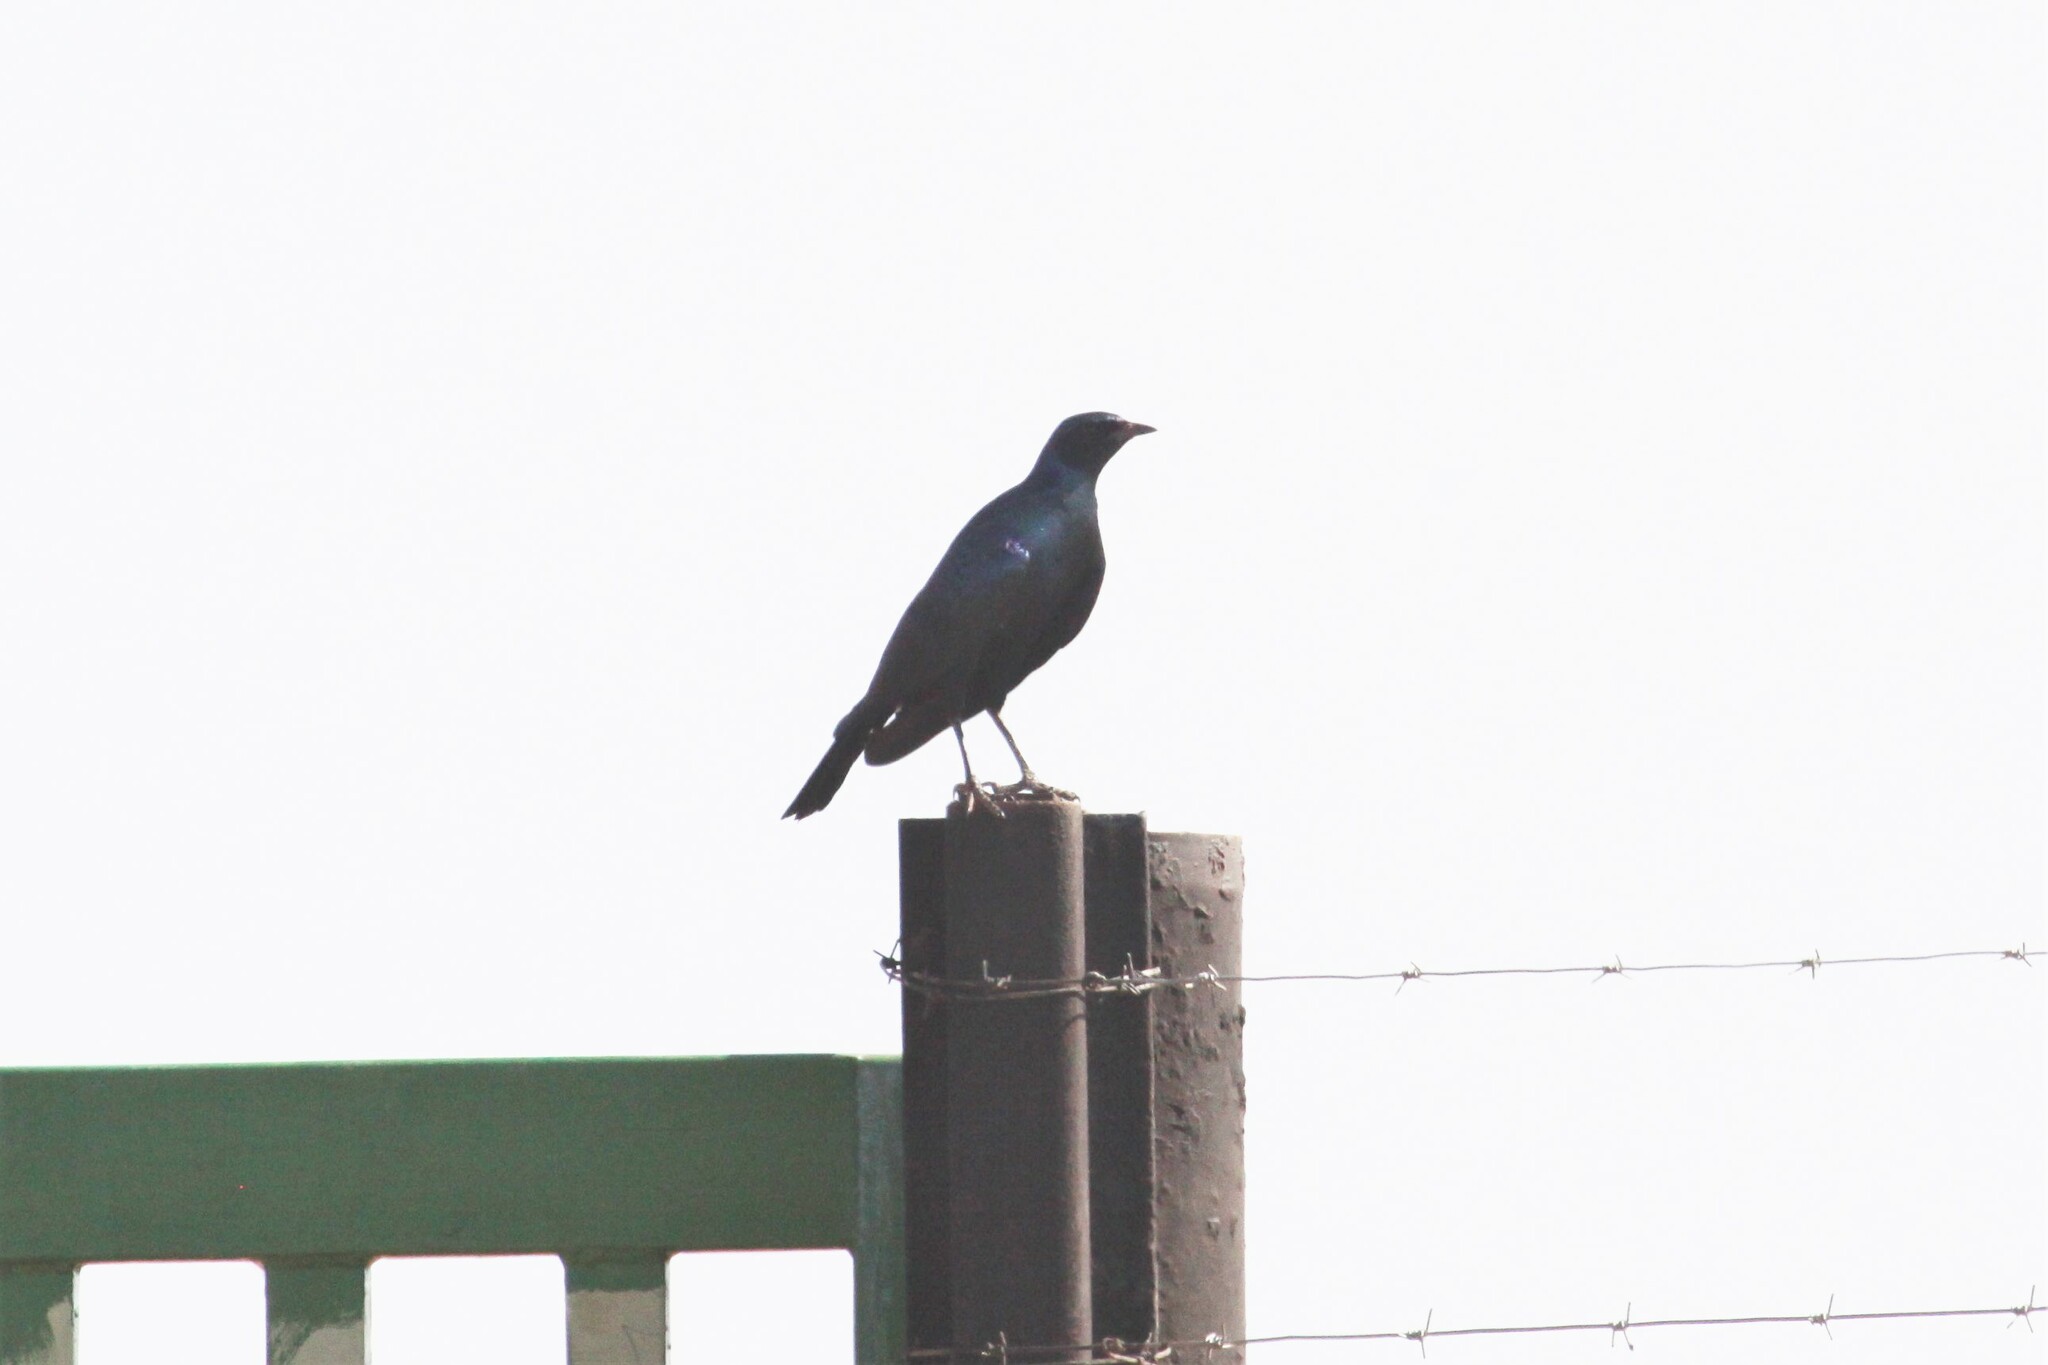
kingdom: Animalia
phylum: Chordata
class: Aves
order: Passeriformes
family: Sturnidae
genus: Lamprotornis
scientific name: Lamprotornis australis
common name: Burchell's starling
